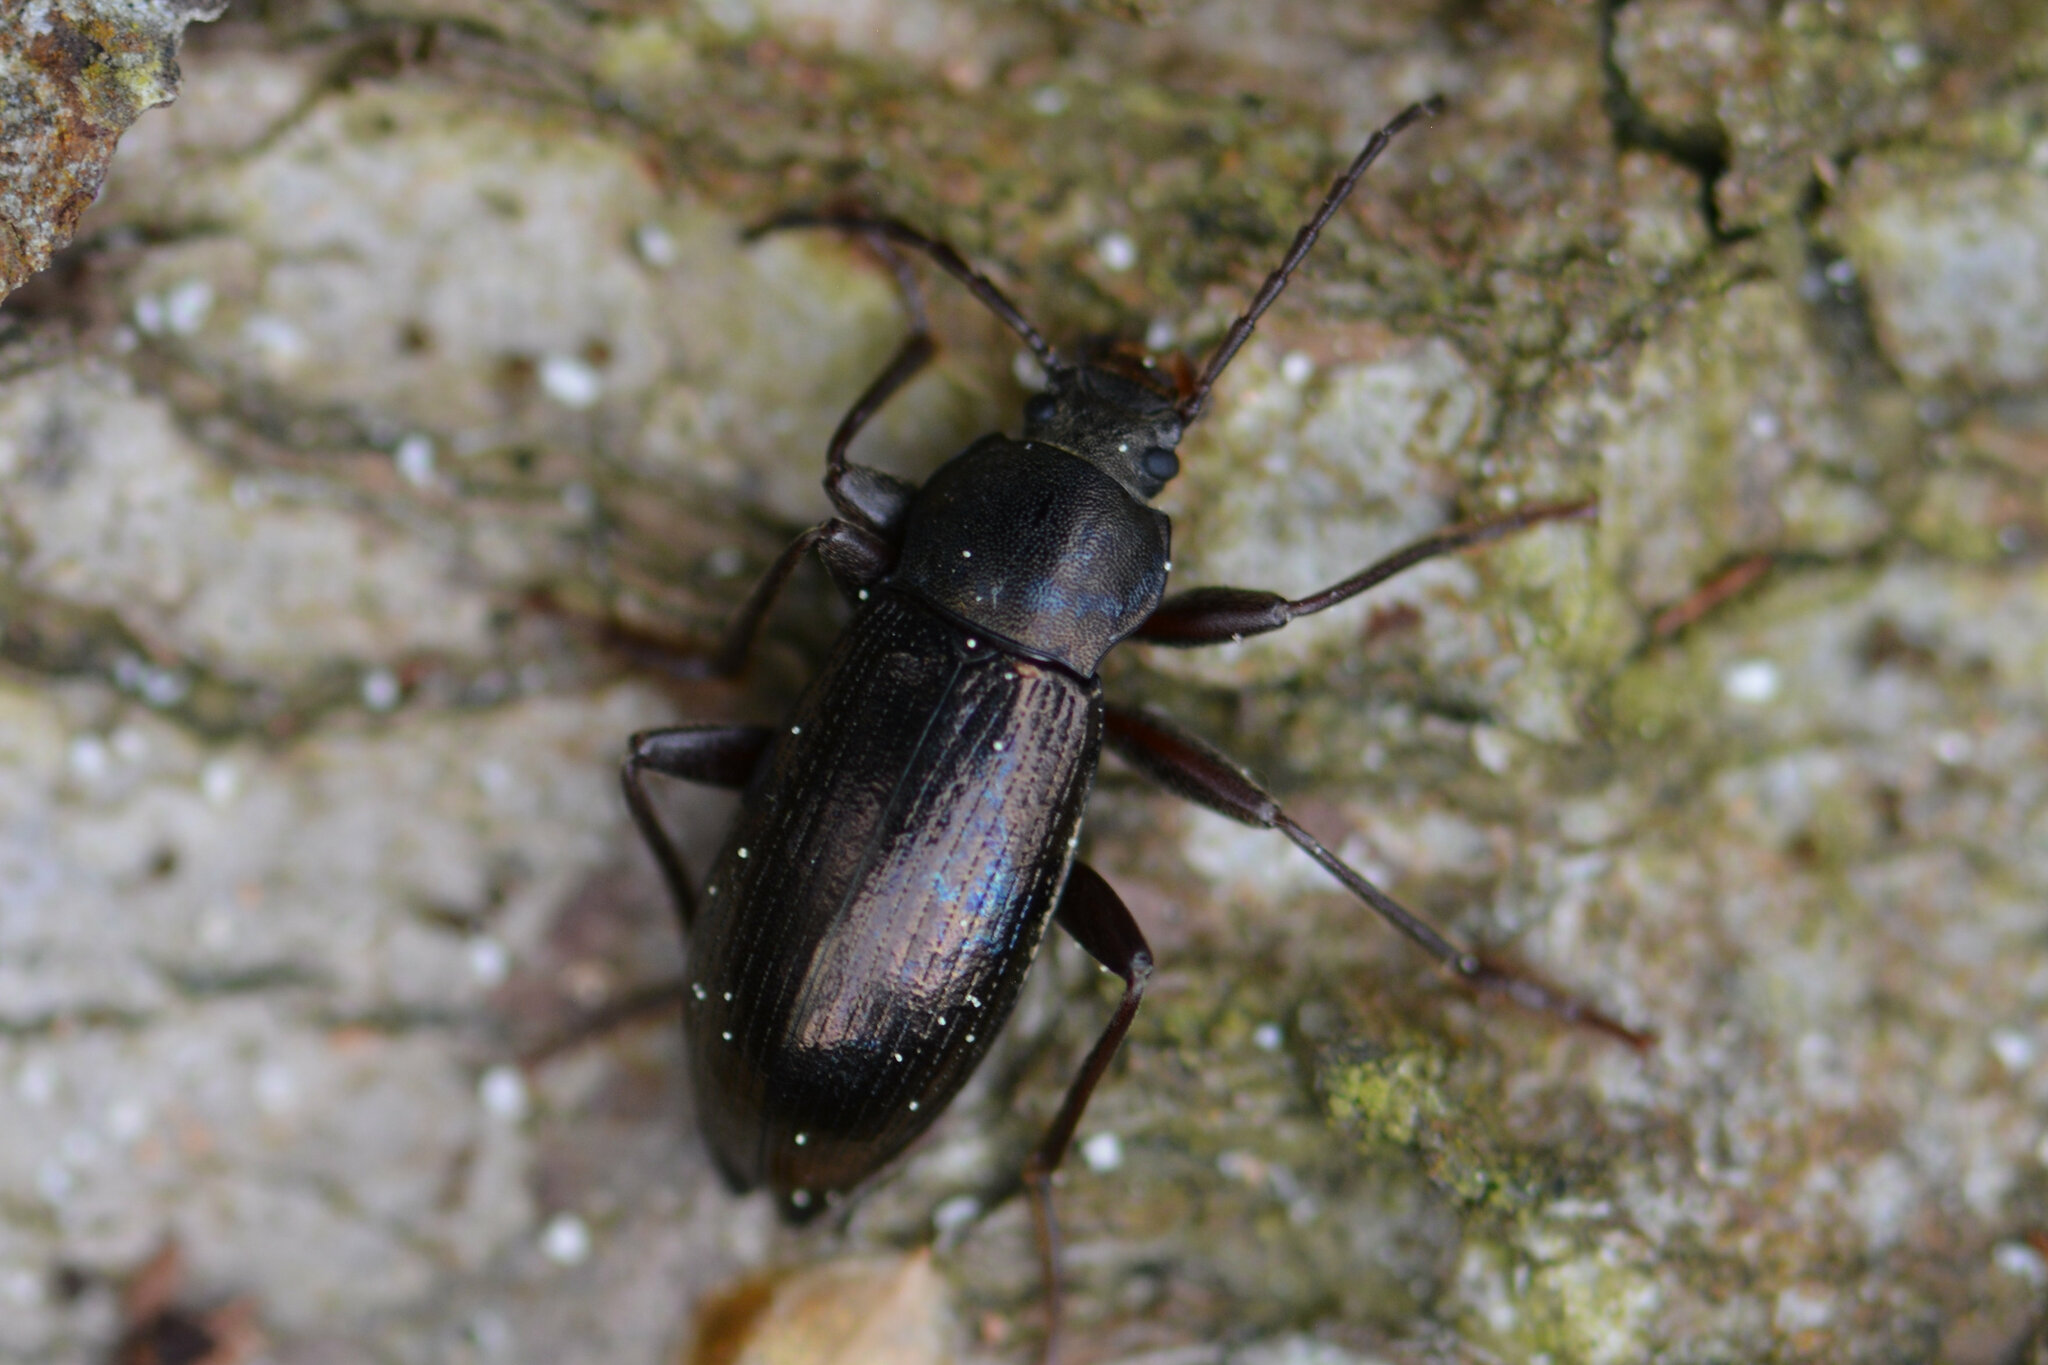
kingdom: Animalia
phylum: Arthropoda
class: Insecta
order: Coleoptera
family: Tenebrionidae
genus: Stenomax
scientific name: Stenomax aeneus
